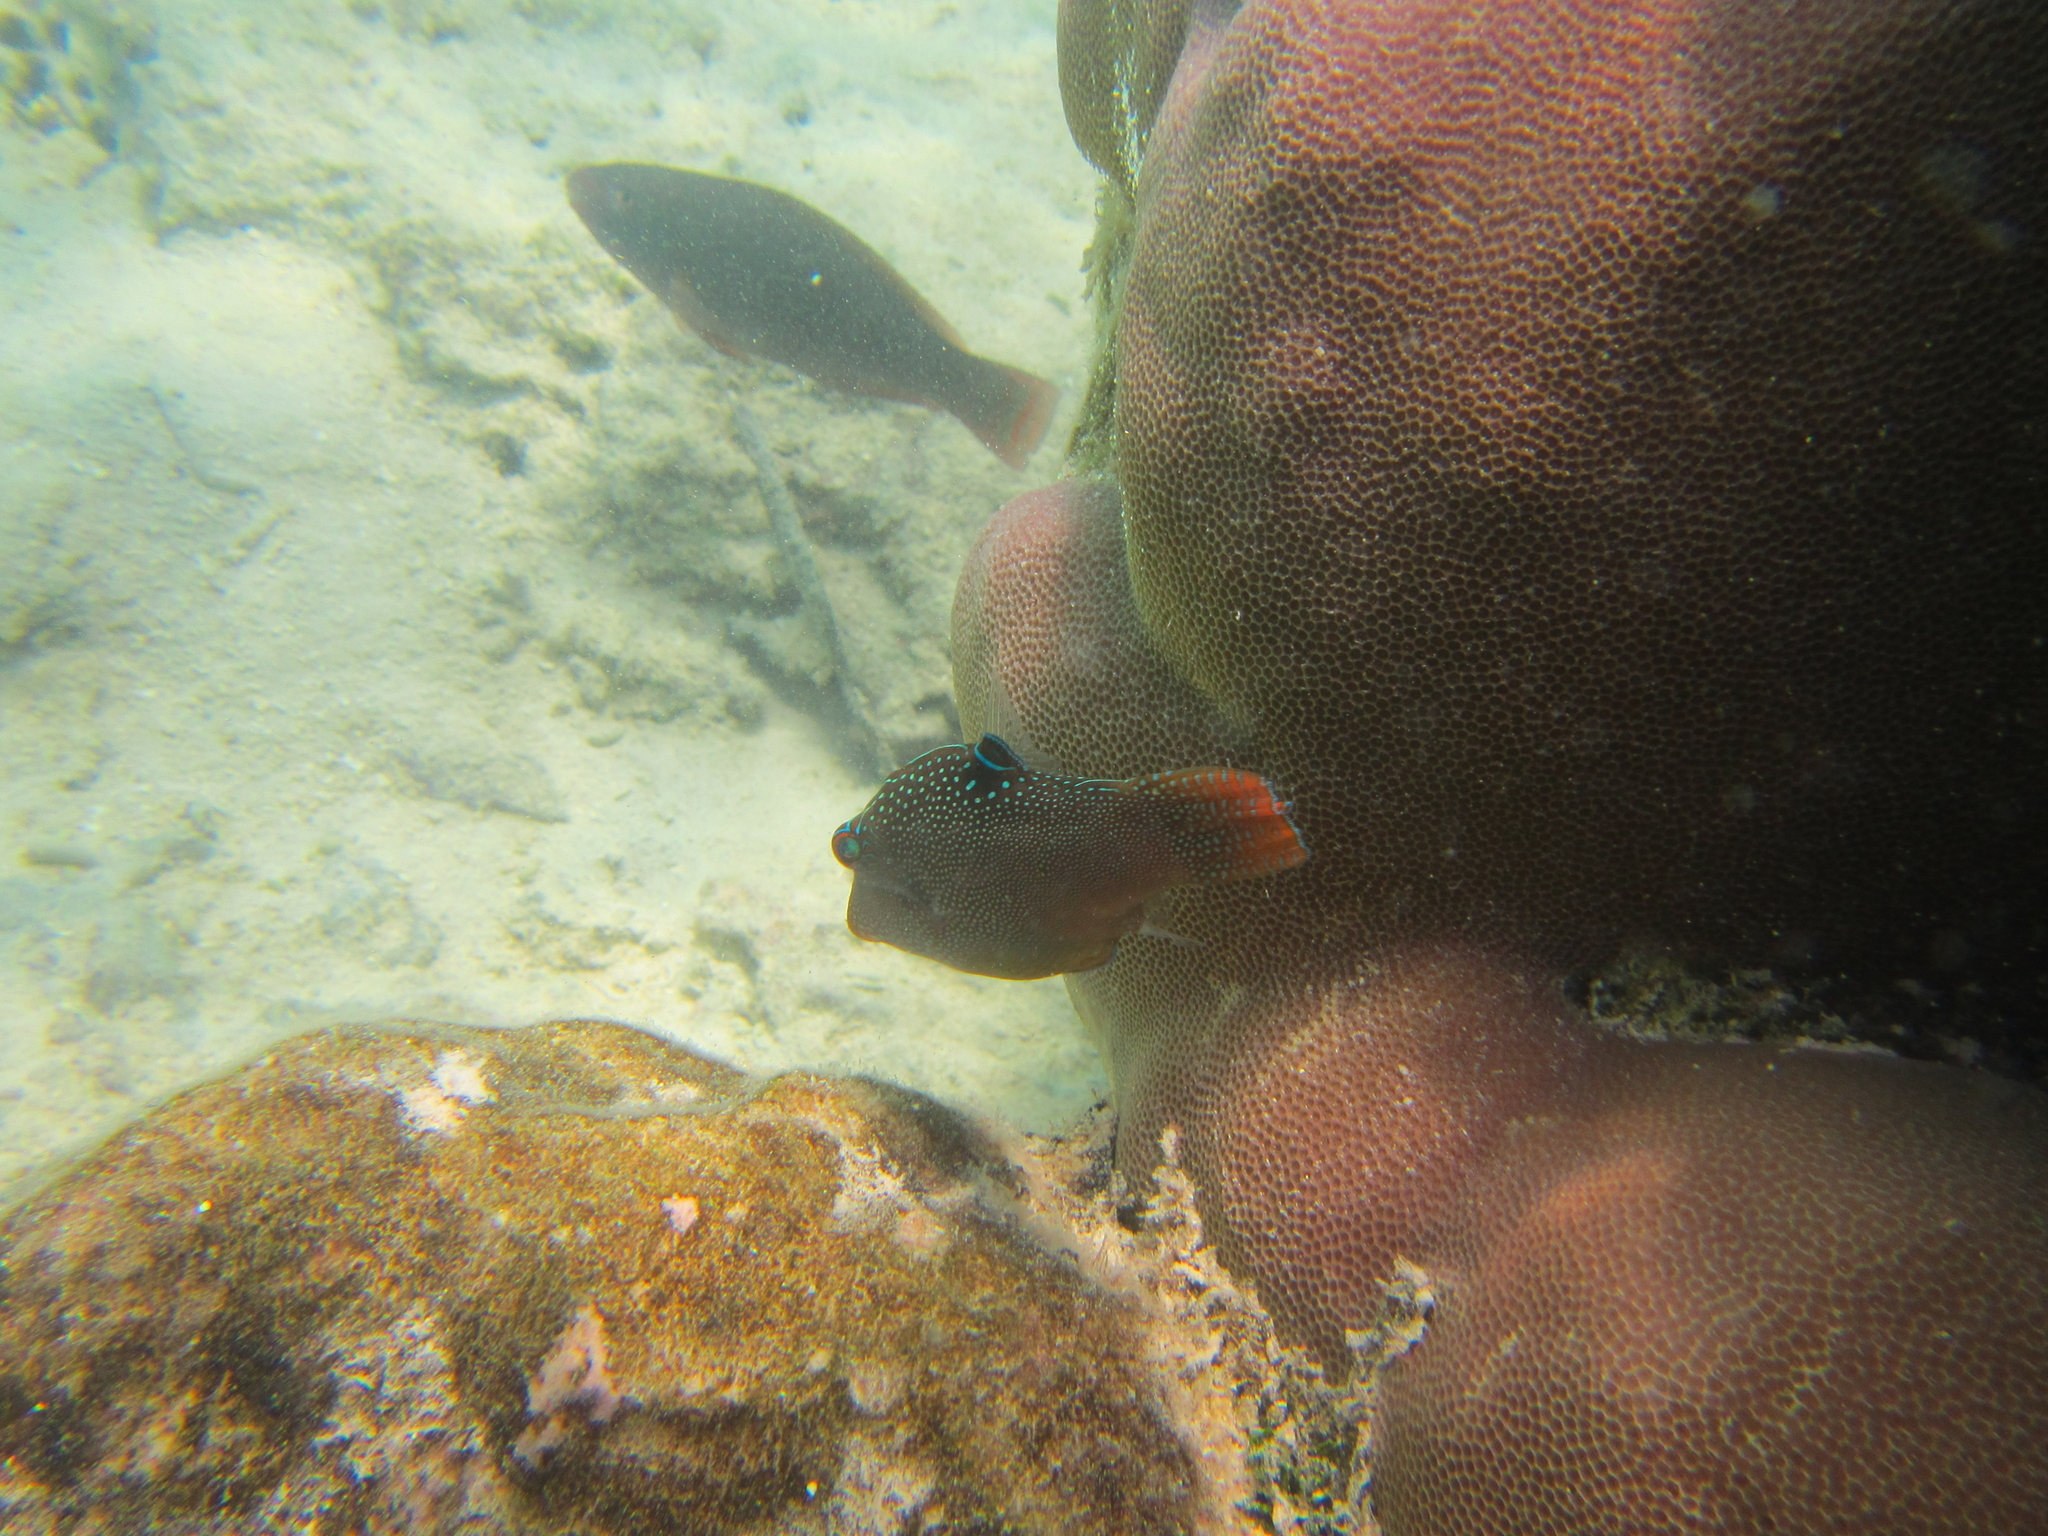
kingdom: Animalia
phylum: Chordata
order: Tetraodontiformes
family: Tetraodontidae
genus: Canthigaster
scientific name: Canthigaster solandri
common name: False-eye toby
